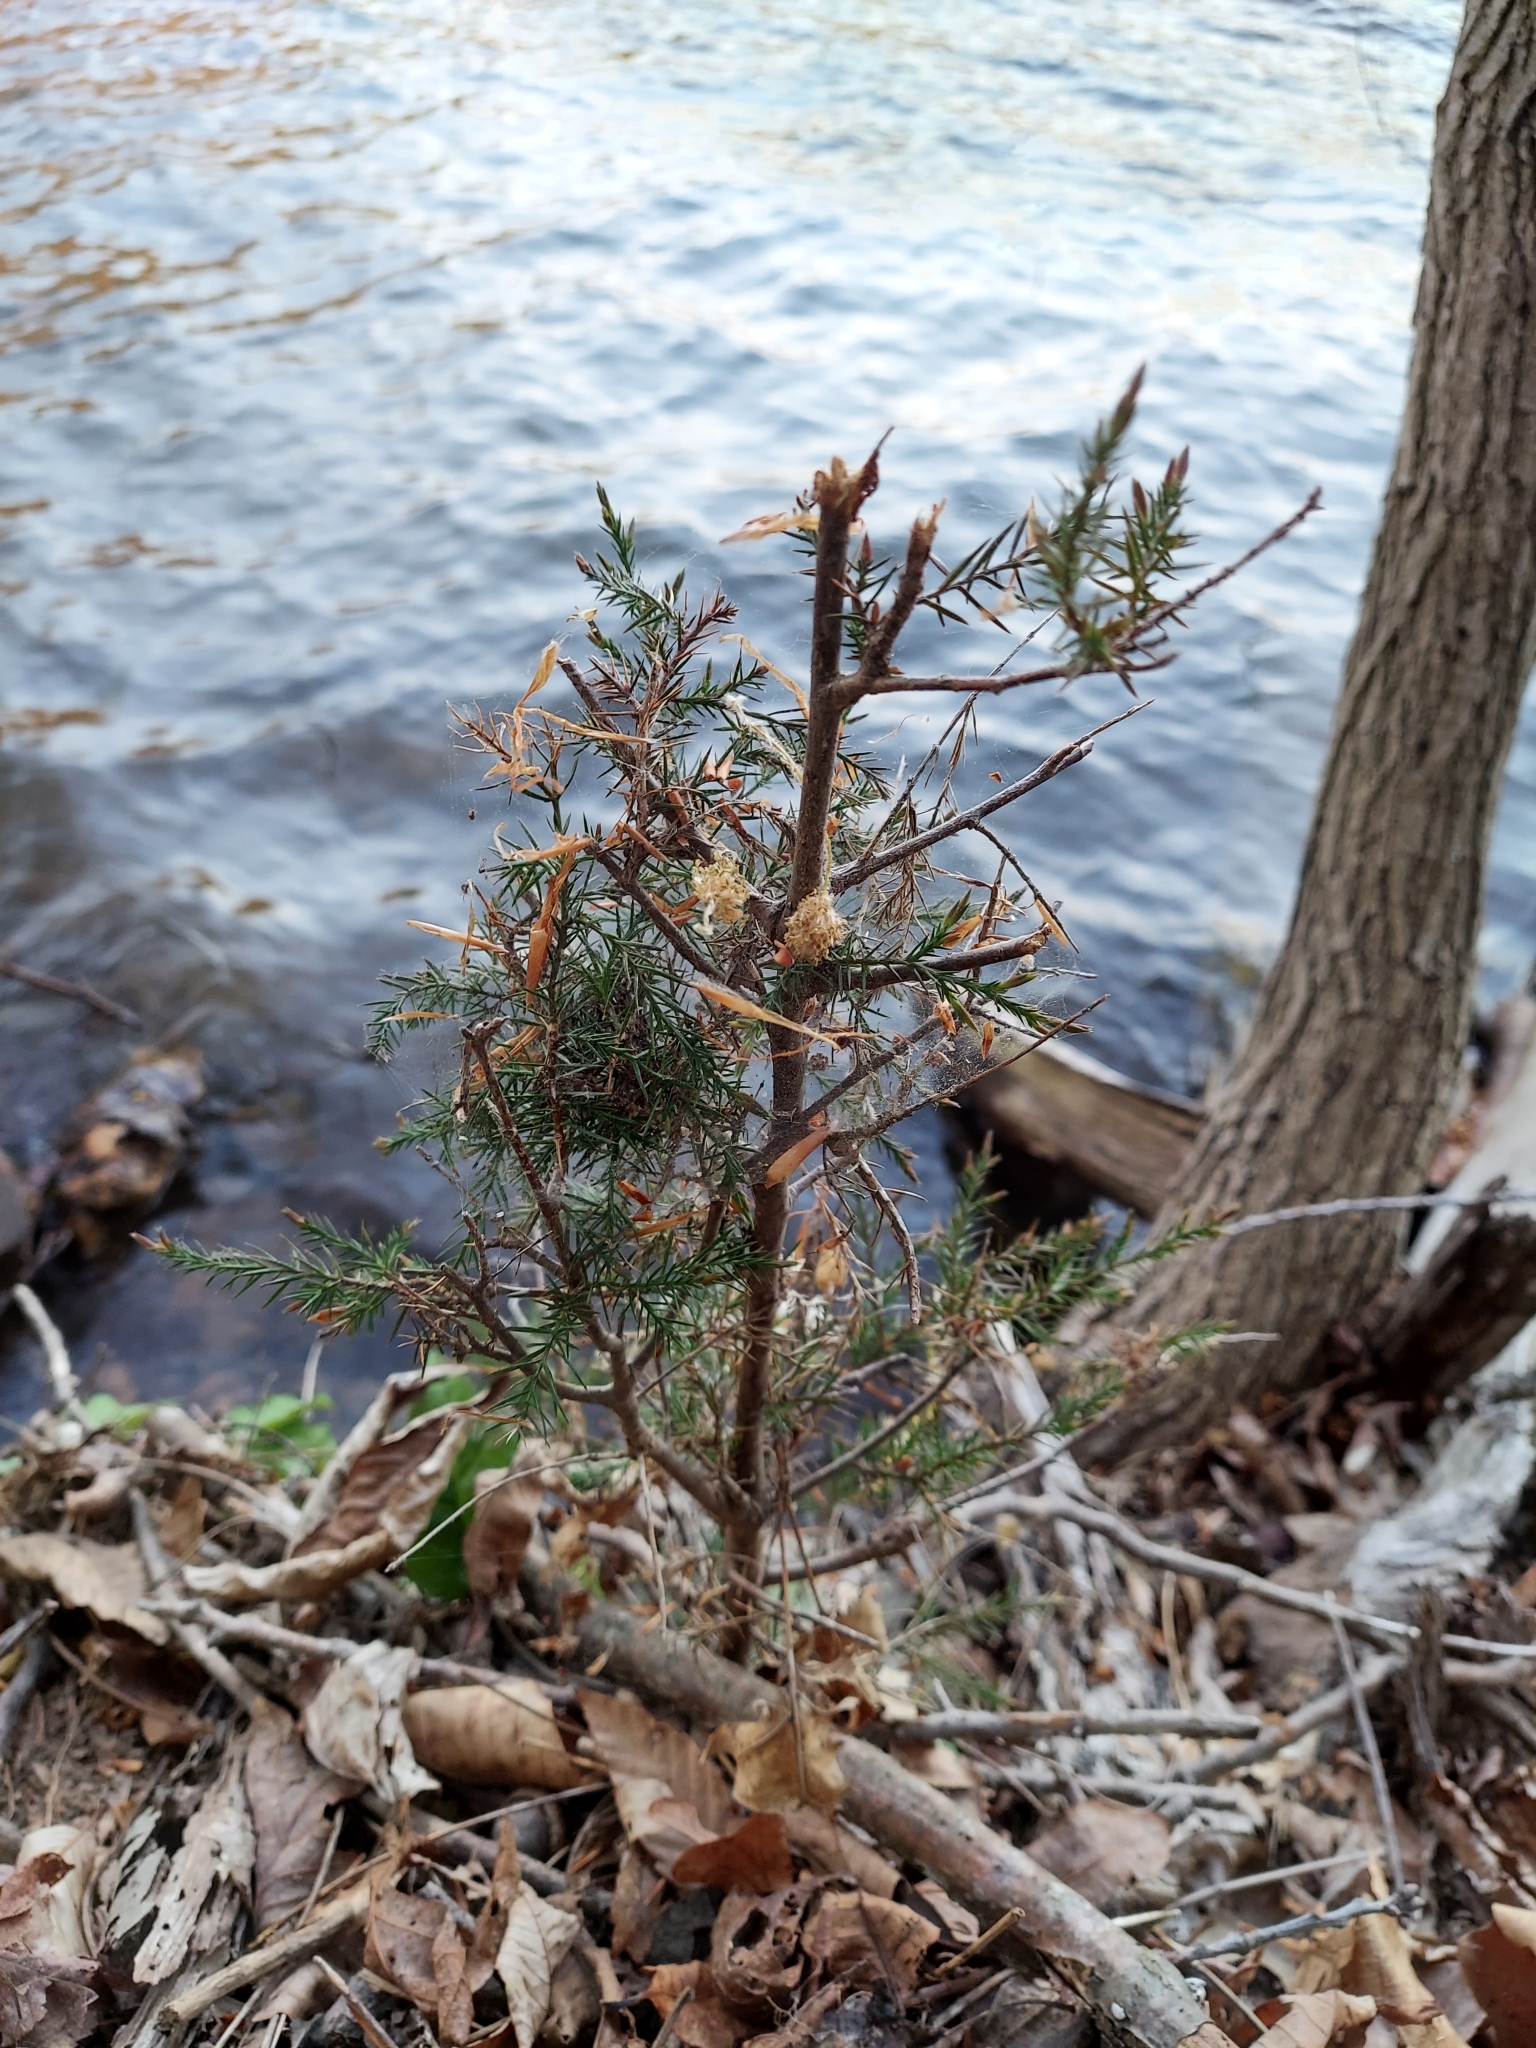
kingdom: Plantae
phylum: Tracheophyta
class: Pinopsida
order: Pinales
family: Cupressaceae
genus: Juniperus
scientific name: Juniperus virginiana
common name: Red juniper
